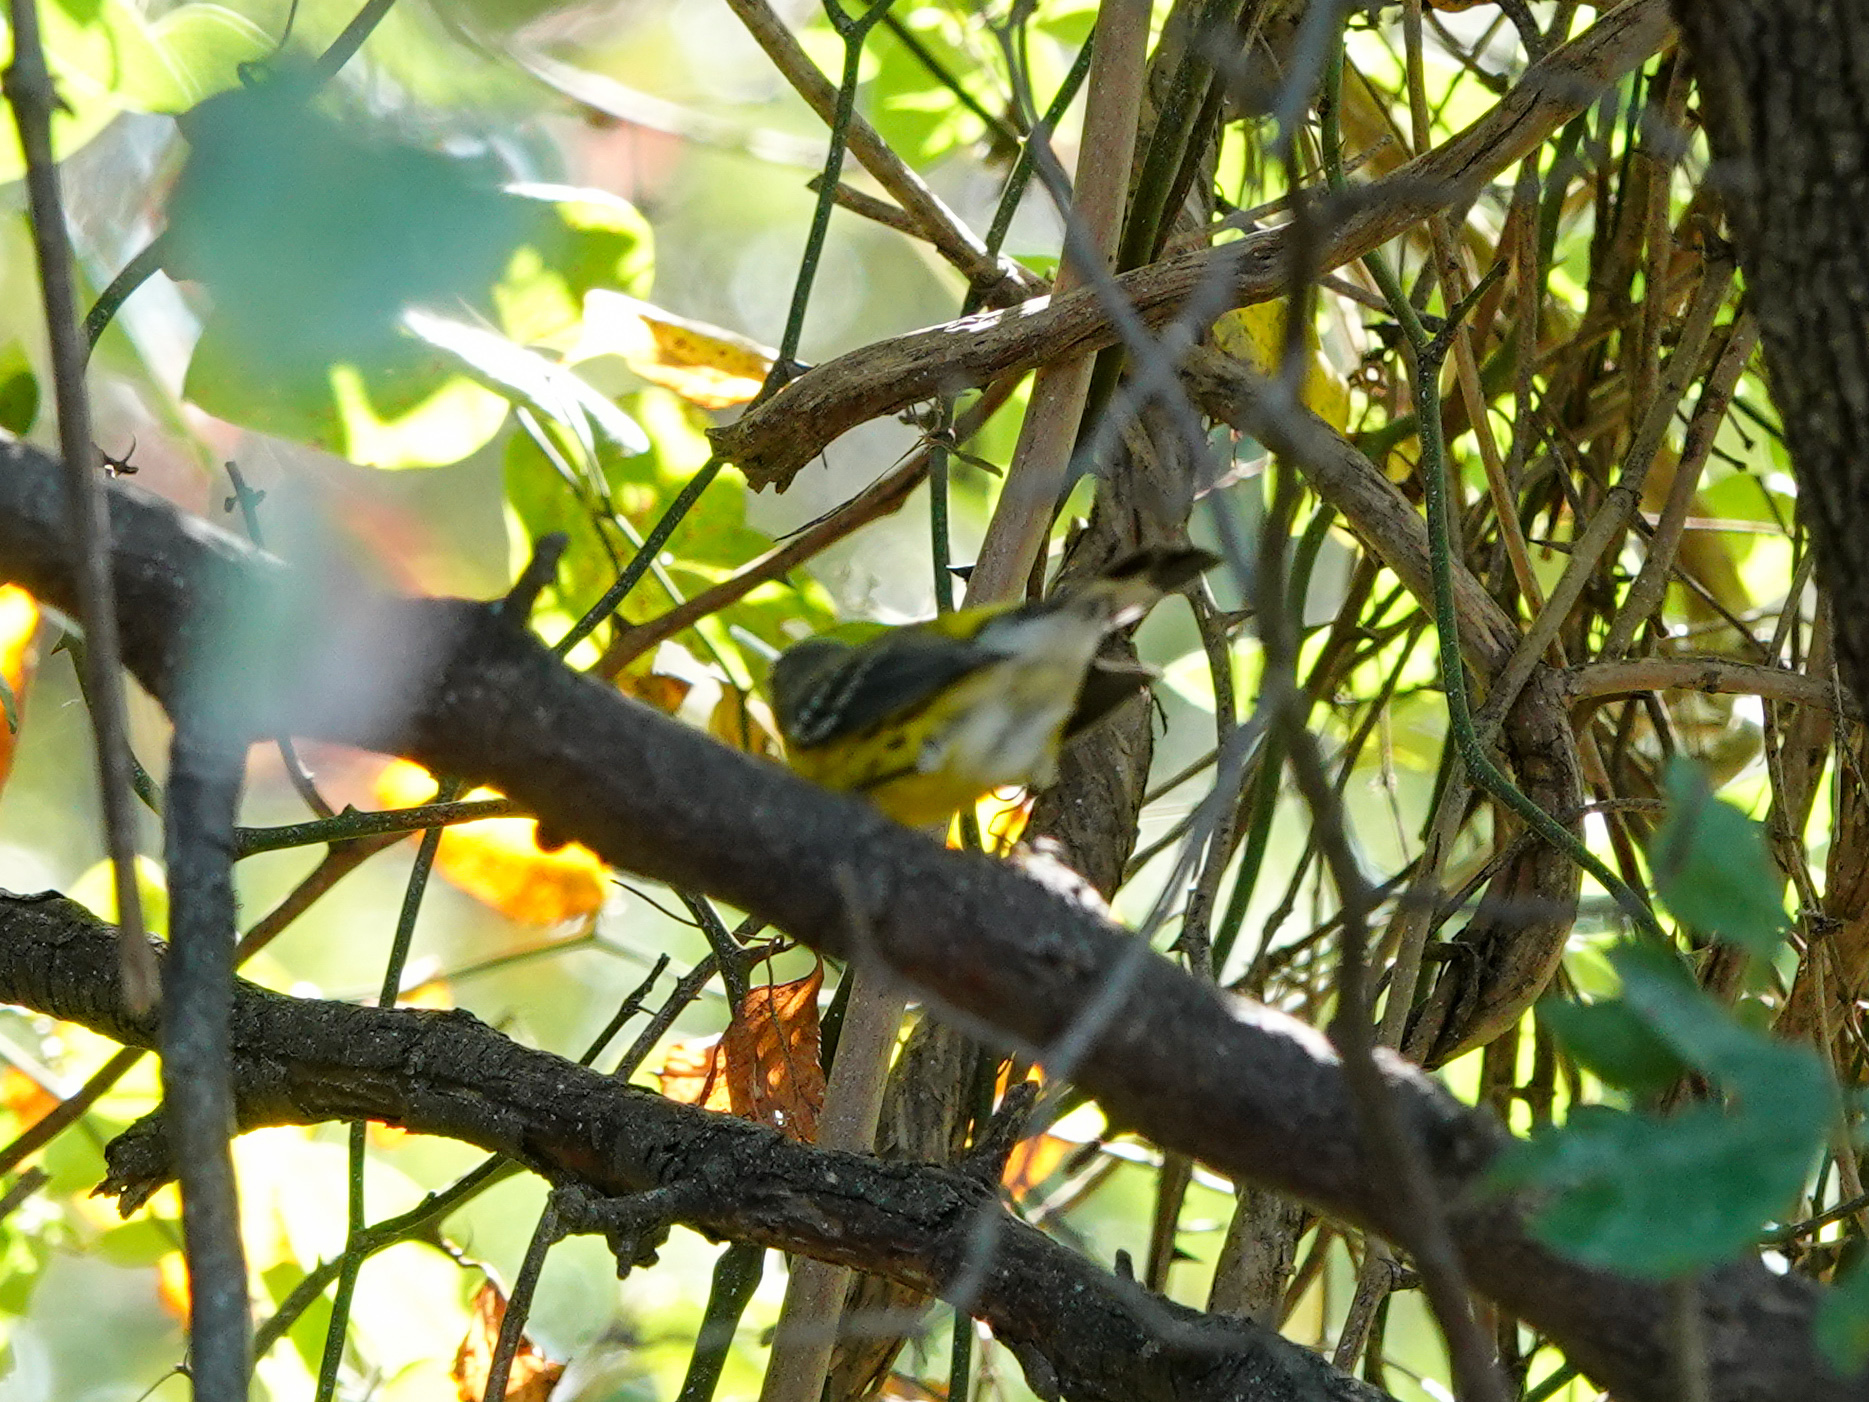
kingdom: Animalia
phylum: Chordata
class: Aves
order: Passeriformes
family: Parulidae
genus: Setophaga
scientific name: Setophaga magnolia
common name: Magnolia warbler
